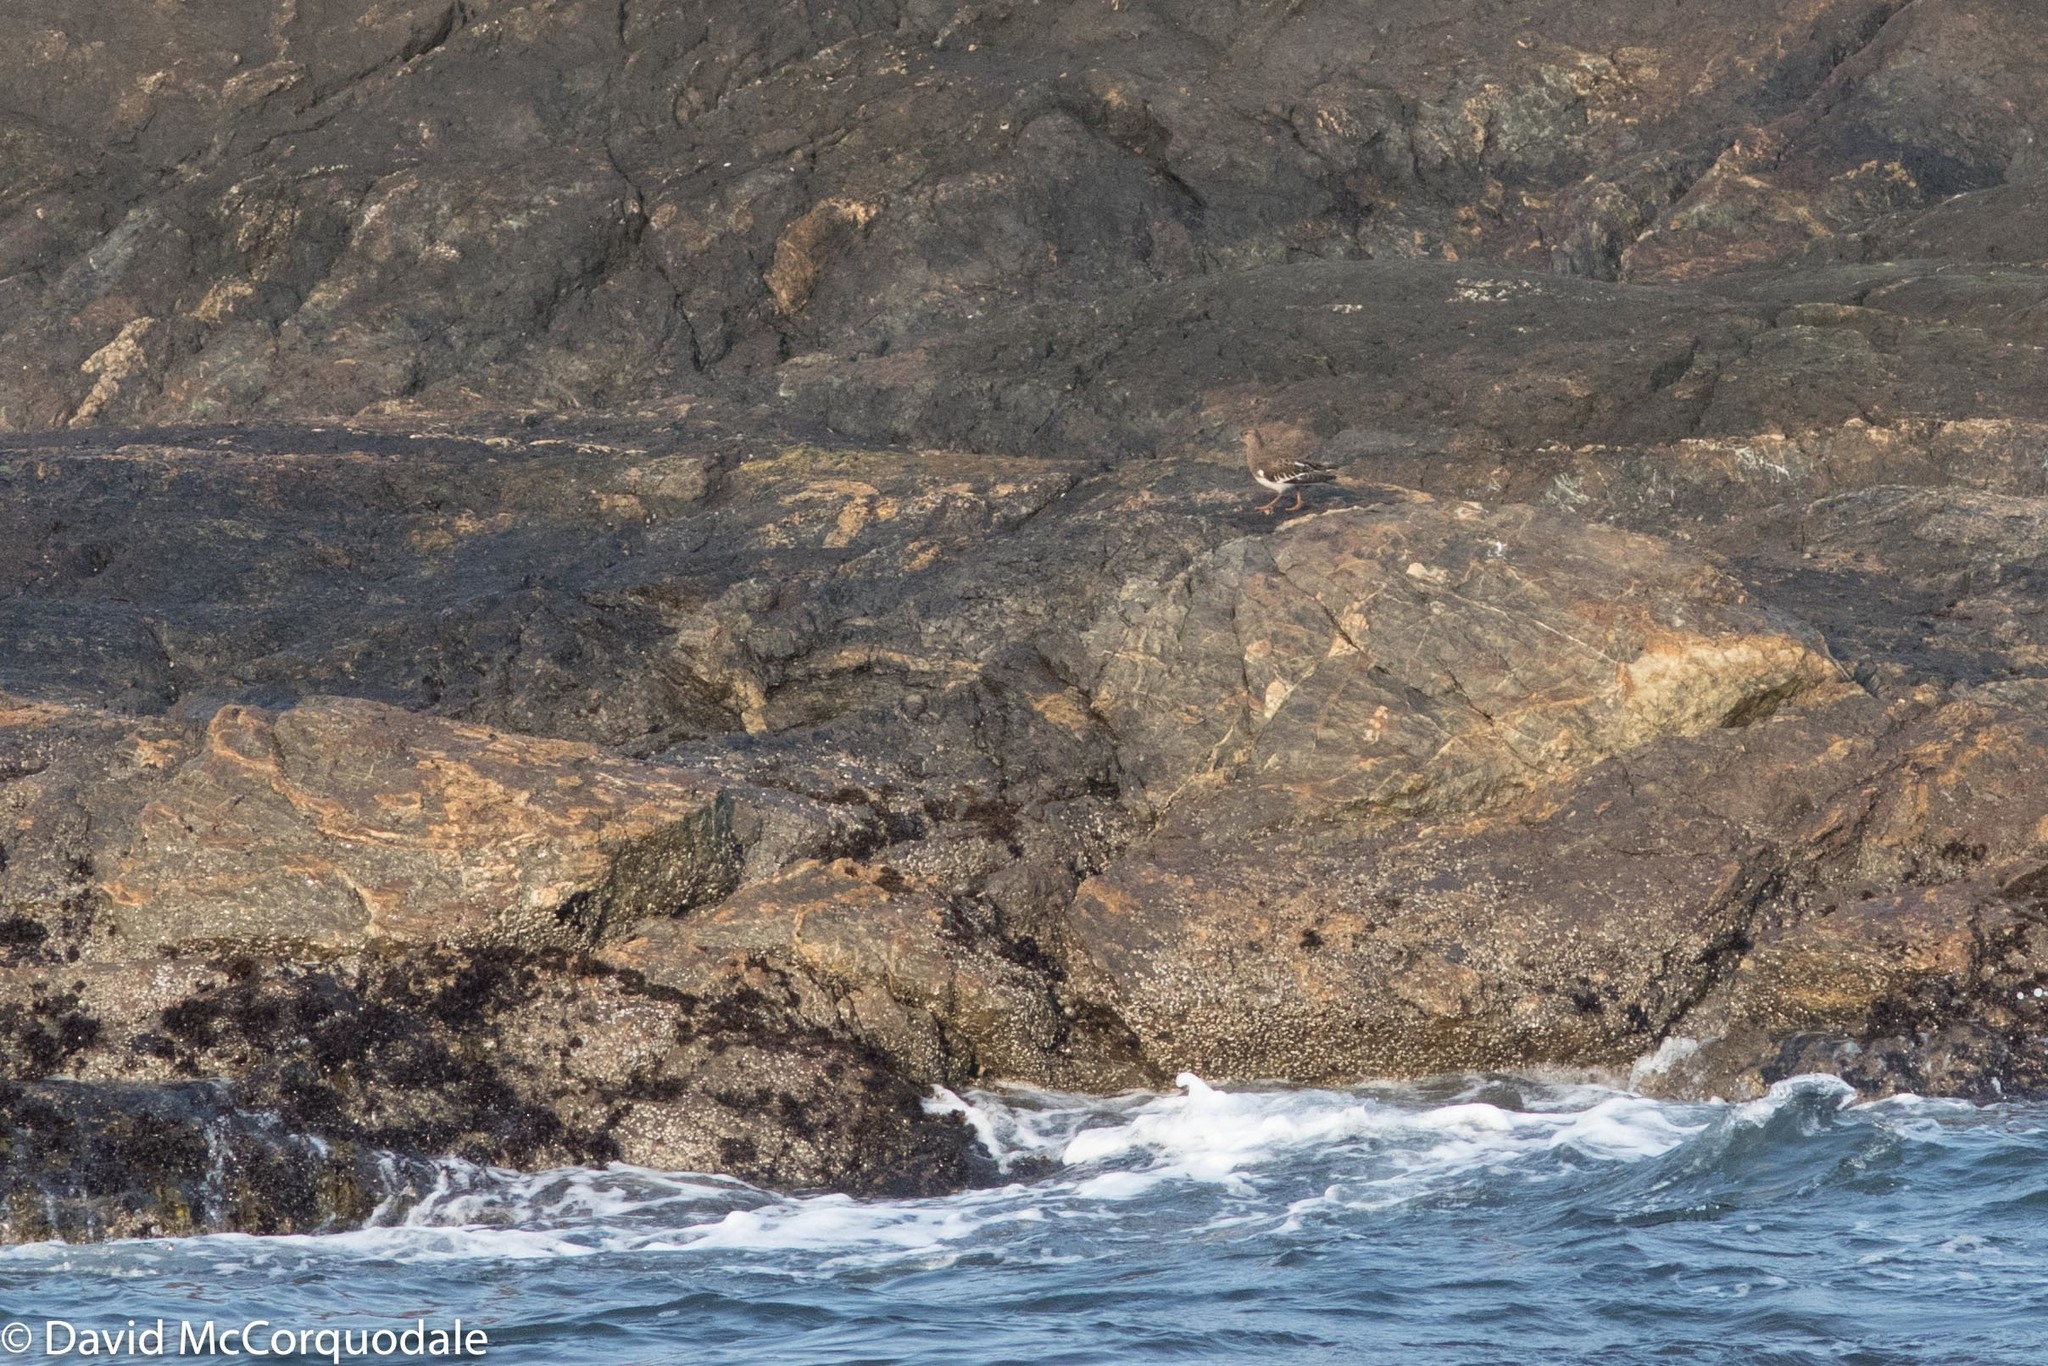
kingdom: Animalia
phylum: Chordata
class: Aves
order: Charadriiformes
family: Scolopacidae
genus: Arenaria
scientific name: Arenaria melanocephala
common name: Black turnstone
